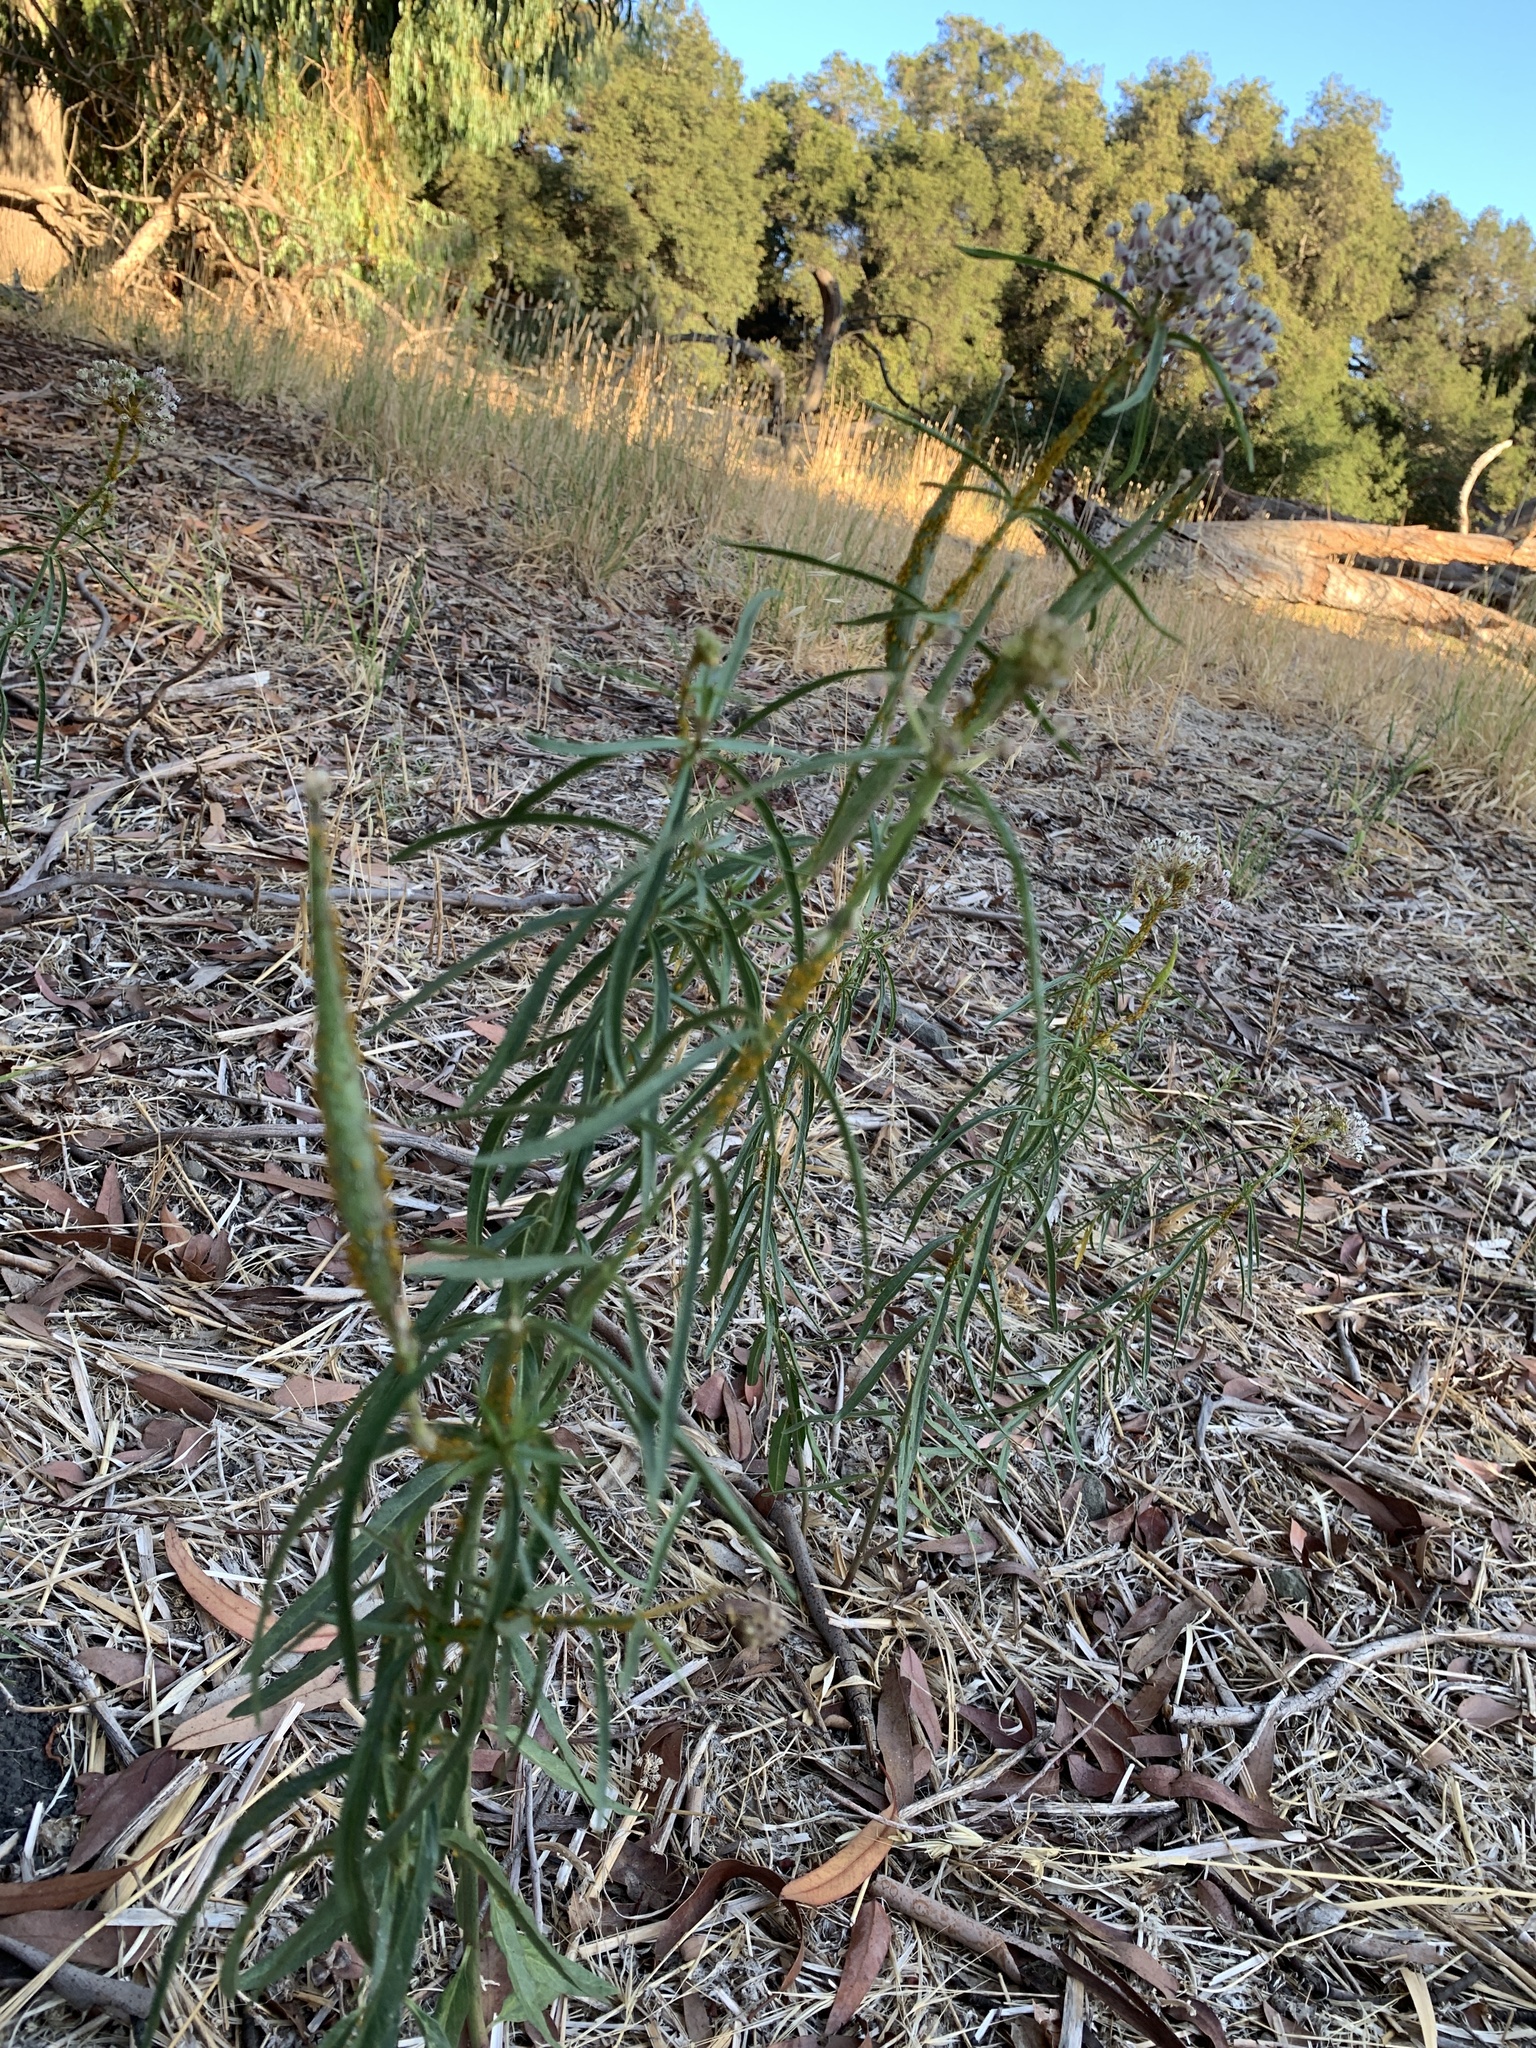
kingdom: Plantae
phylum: Tracheophyta
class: Magnoliopsida
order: Gentianales
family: Apocynaceae
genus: Asclepias
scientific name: Asclepias fascicularis
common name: Mexican milkweed
